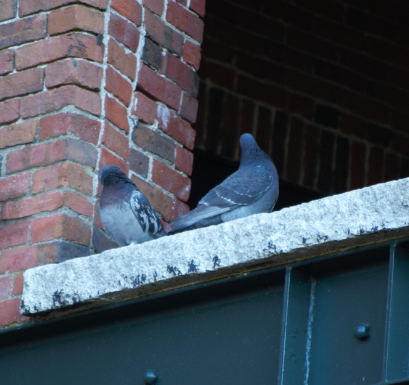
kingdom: Animalia
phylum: Chordata
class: Aves
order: Columbiformes
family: Columbidae
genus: Columba
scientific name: Columba livia
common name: Rock pigeon
